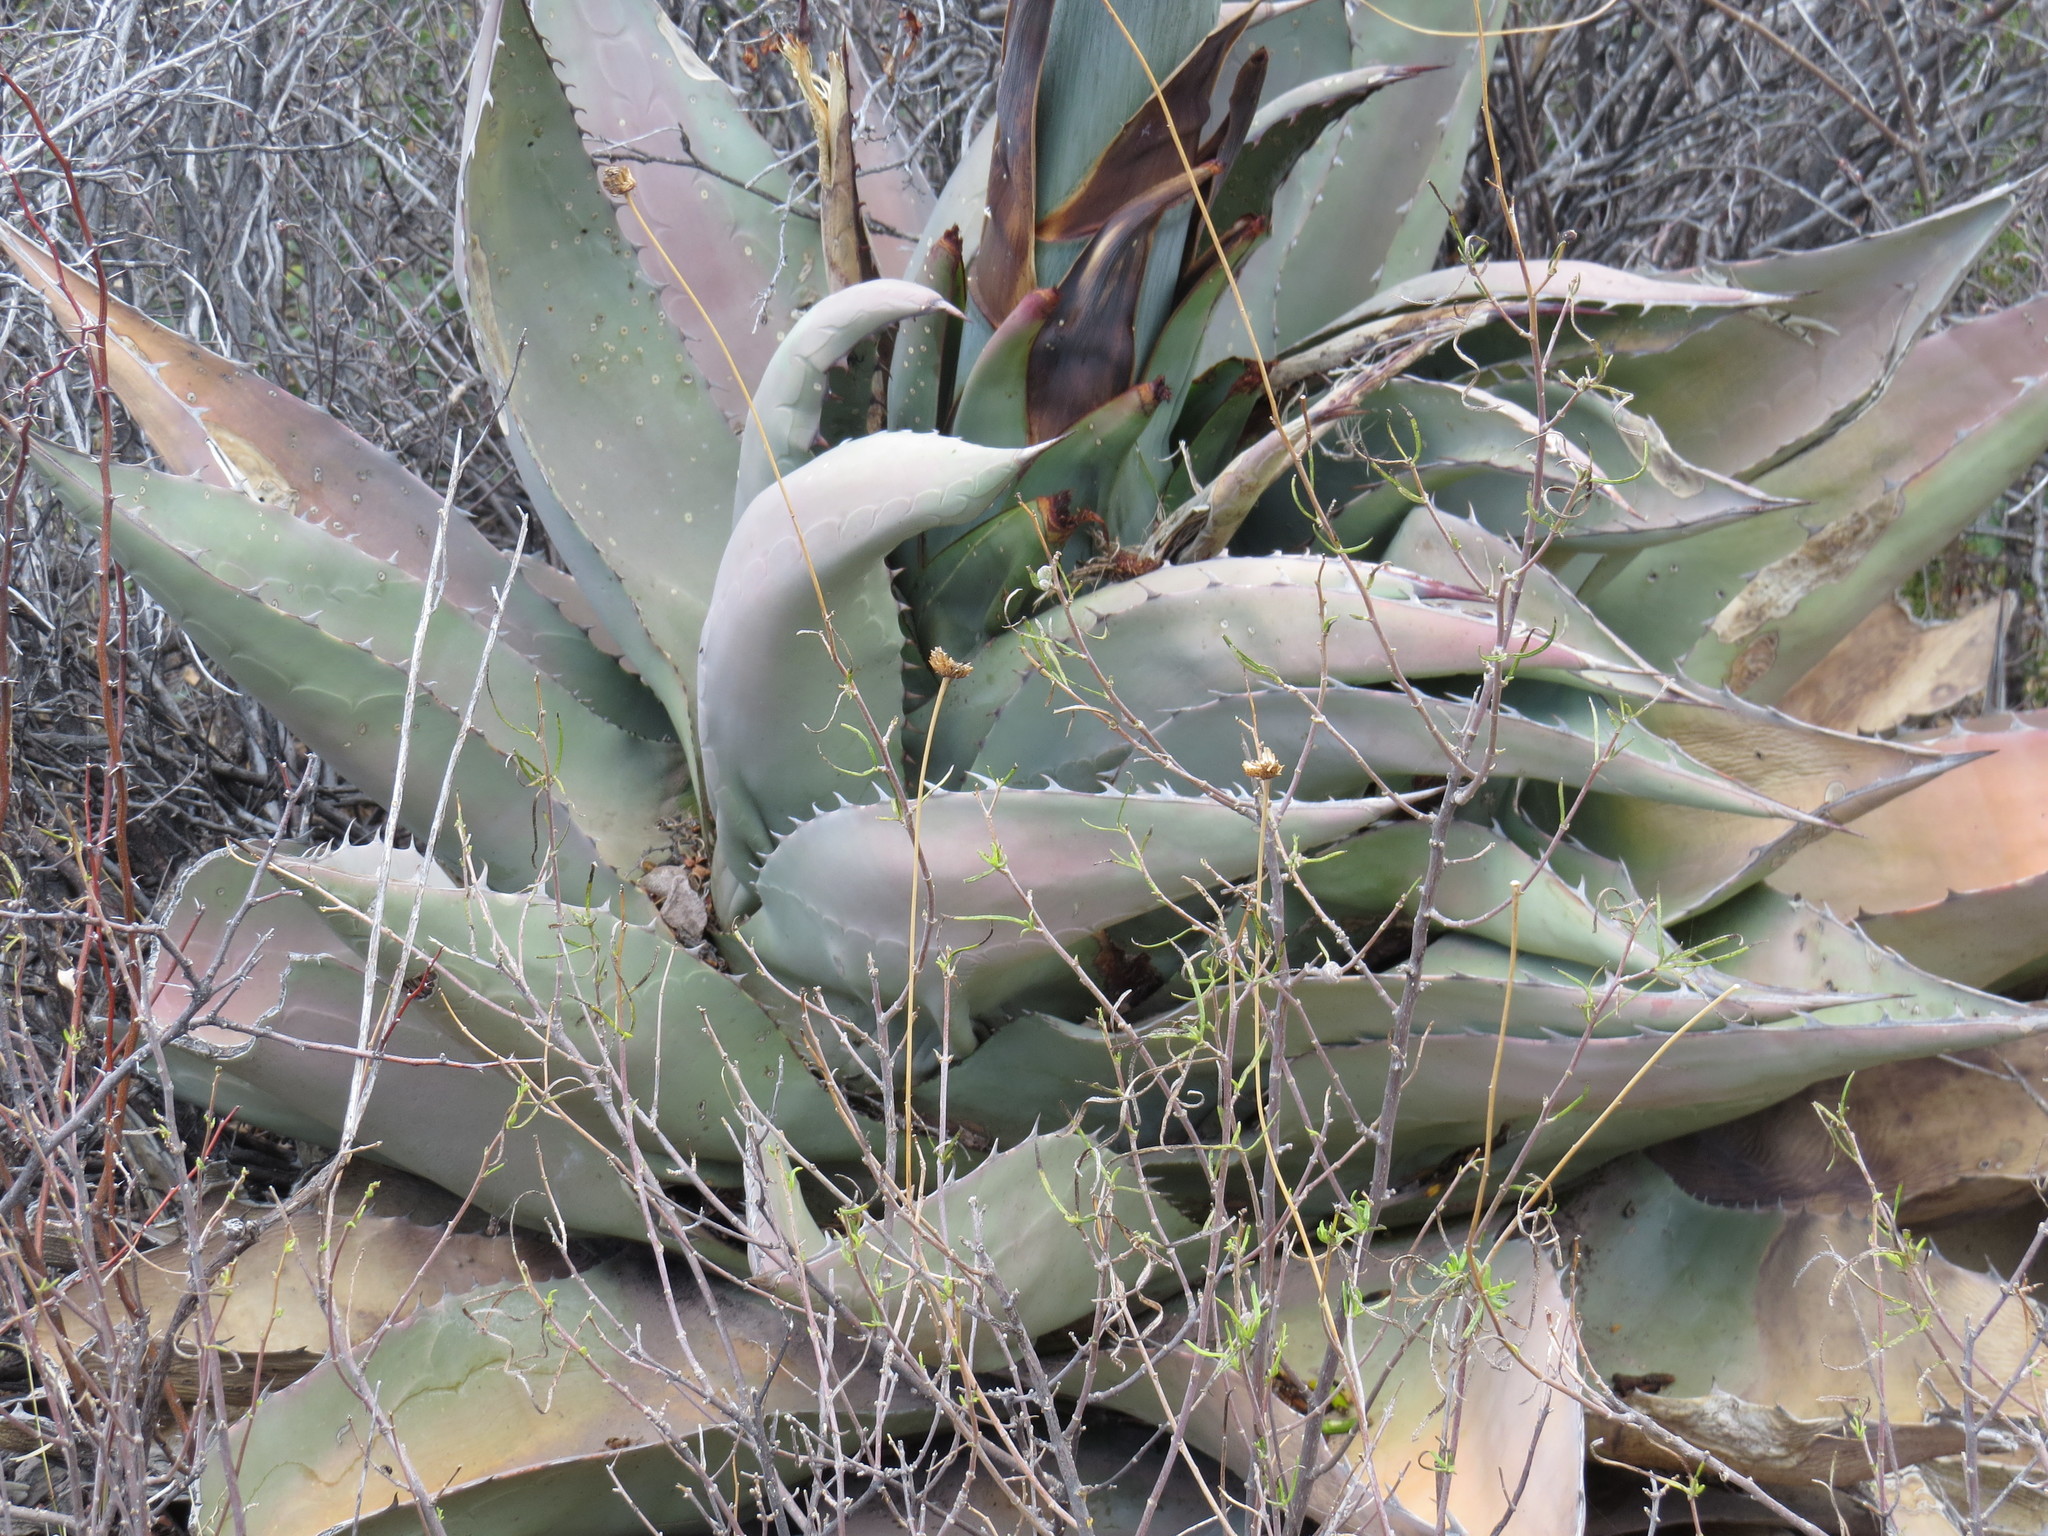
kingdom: Plantae
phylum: Tracheophyta
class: Liliopsida
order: Asparagales
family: Asparagaceae
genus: Agave
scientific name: Agave havardiana
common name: Havard agave
